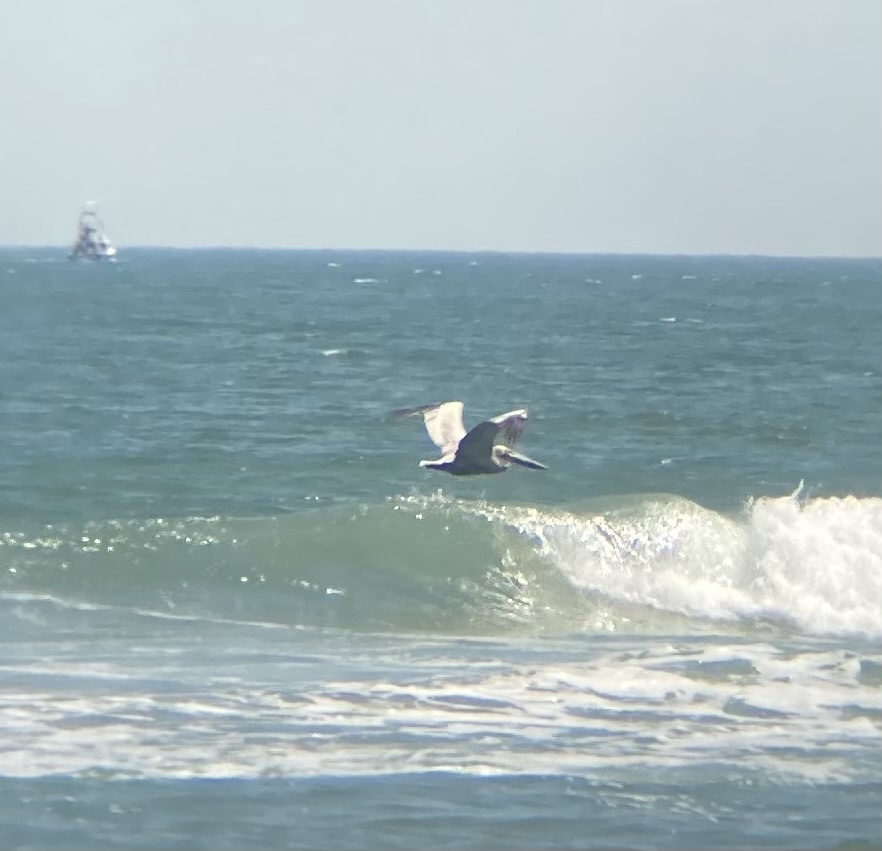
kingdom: Animalia
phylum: Chordata
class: Aves
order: Pelecaniformes
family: Pelecanidae
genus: Pelecanus
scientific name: Pelecanus occidentalis
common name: Brown pelican
